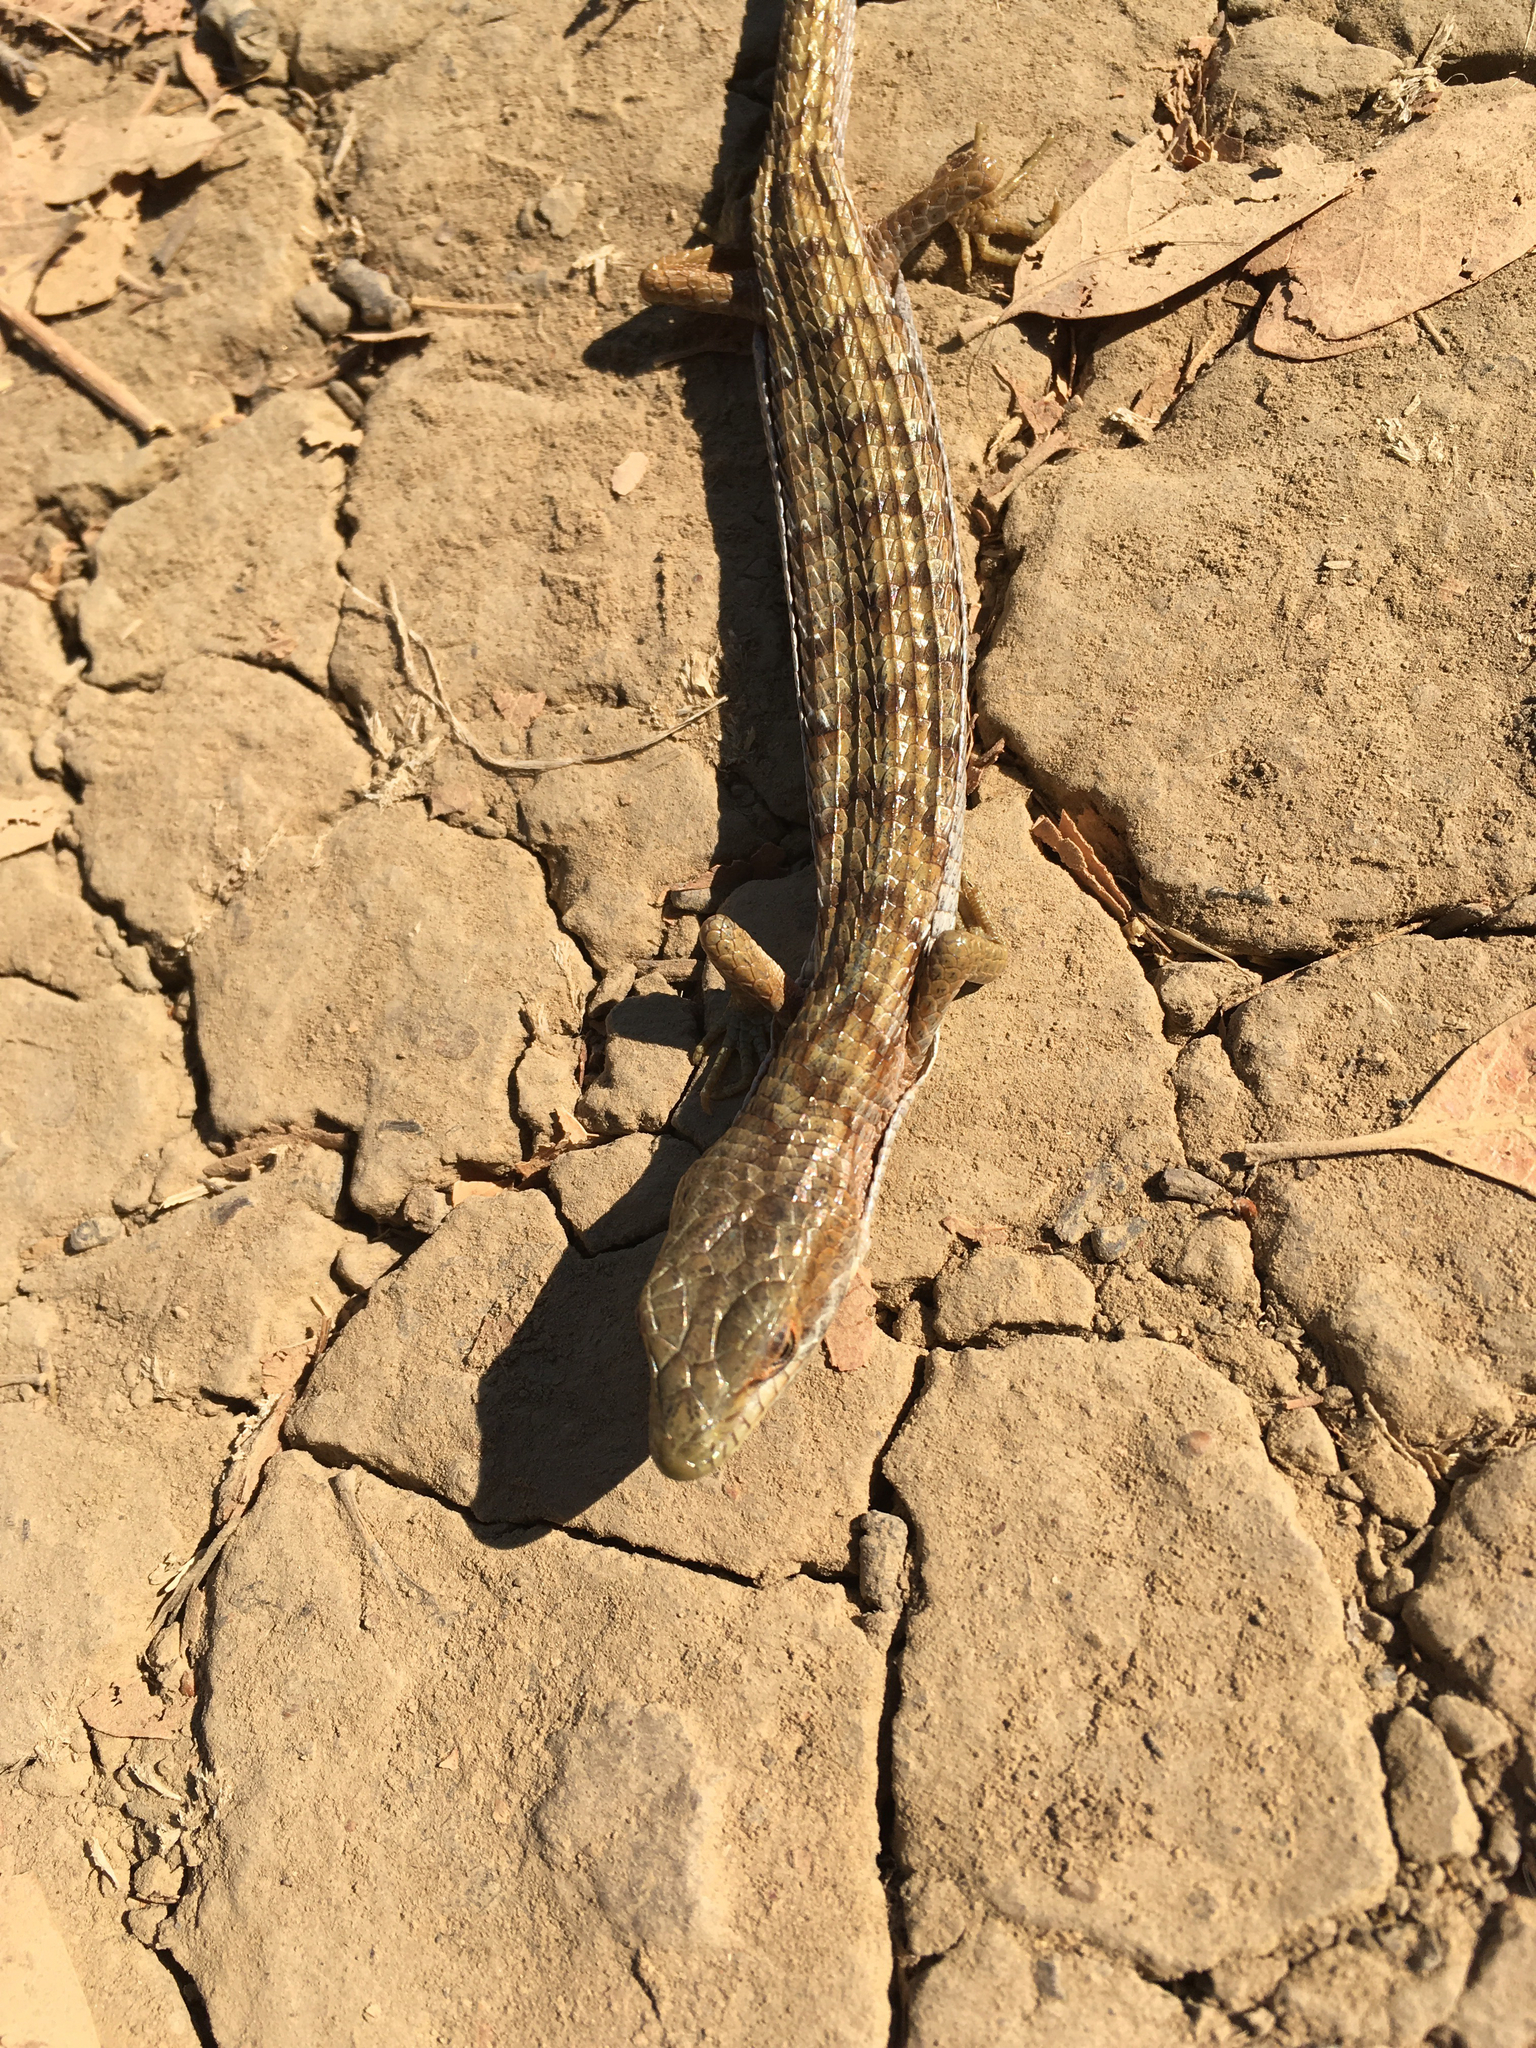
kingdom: Animalia
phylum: Chordata
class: Squamata
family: Anguidae
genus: Elgaria
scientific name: Elgaria multicarinata
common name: Southern alligator lizard
